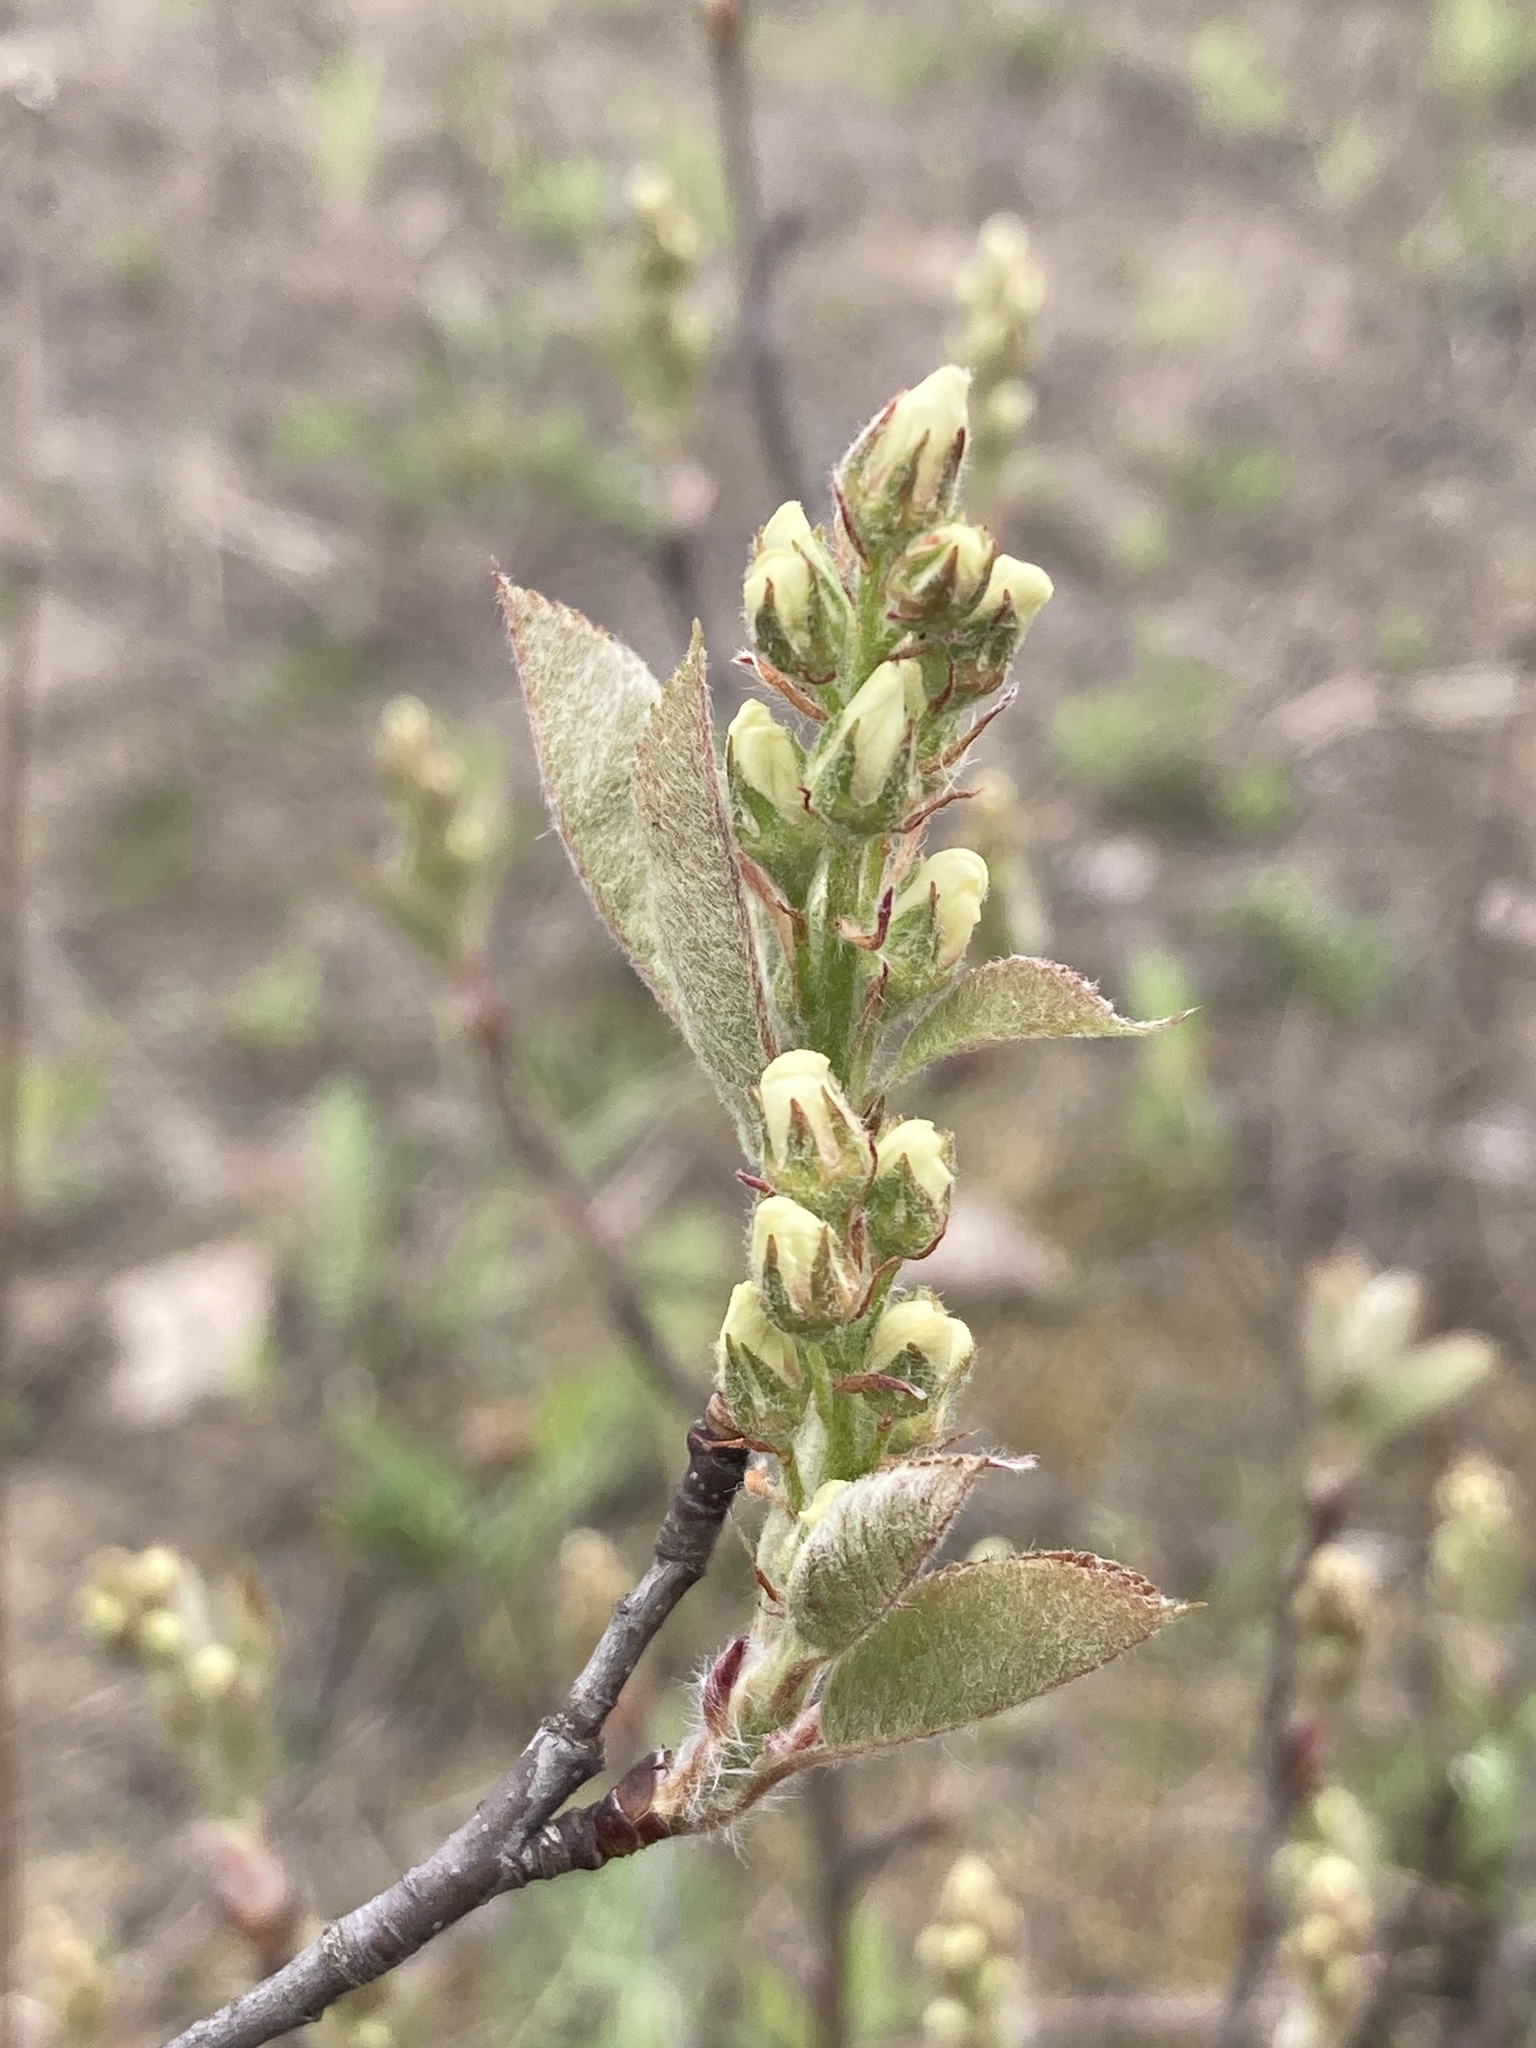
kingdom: Plantae
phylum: Tracheophyta
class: Magnoliopsida
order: Rosales
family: Rosaceae
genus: Amelanchier
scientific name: Amelanchier
